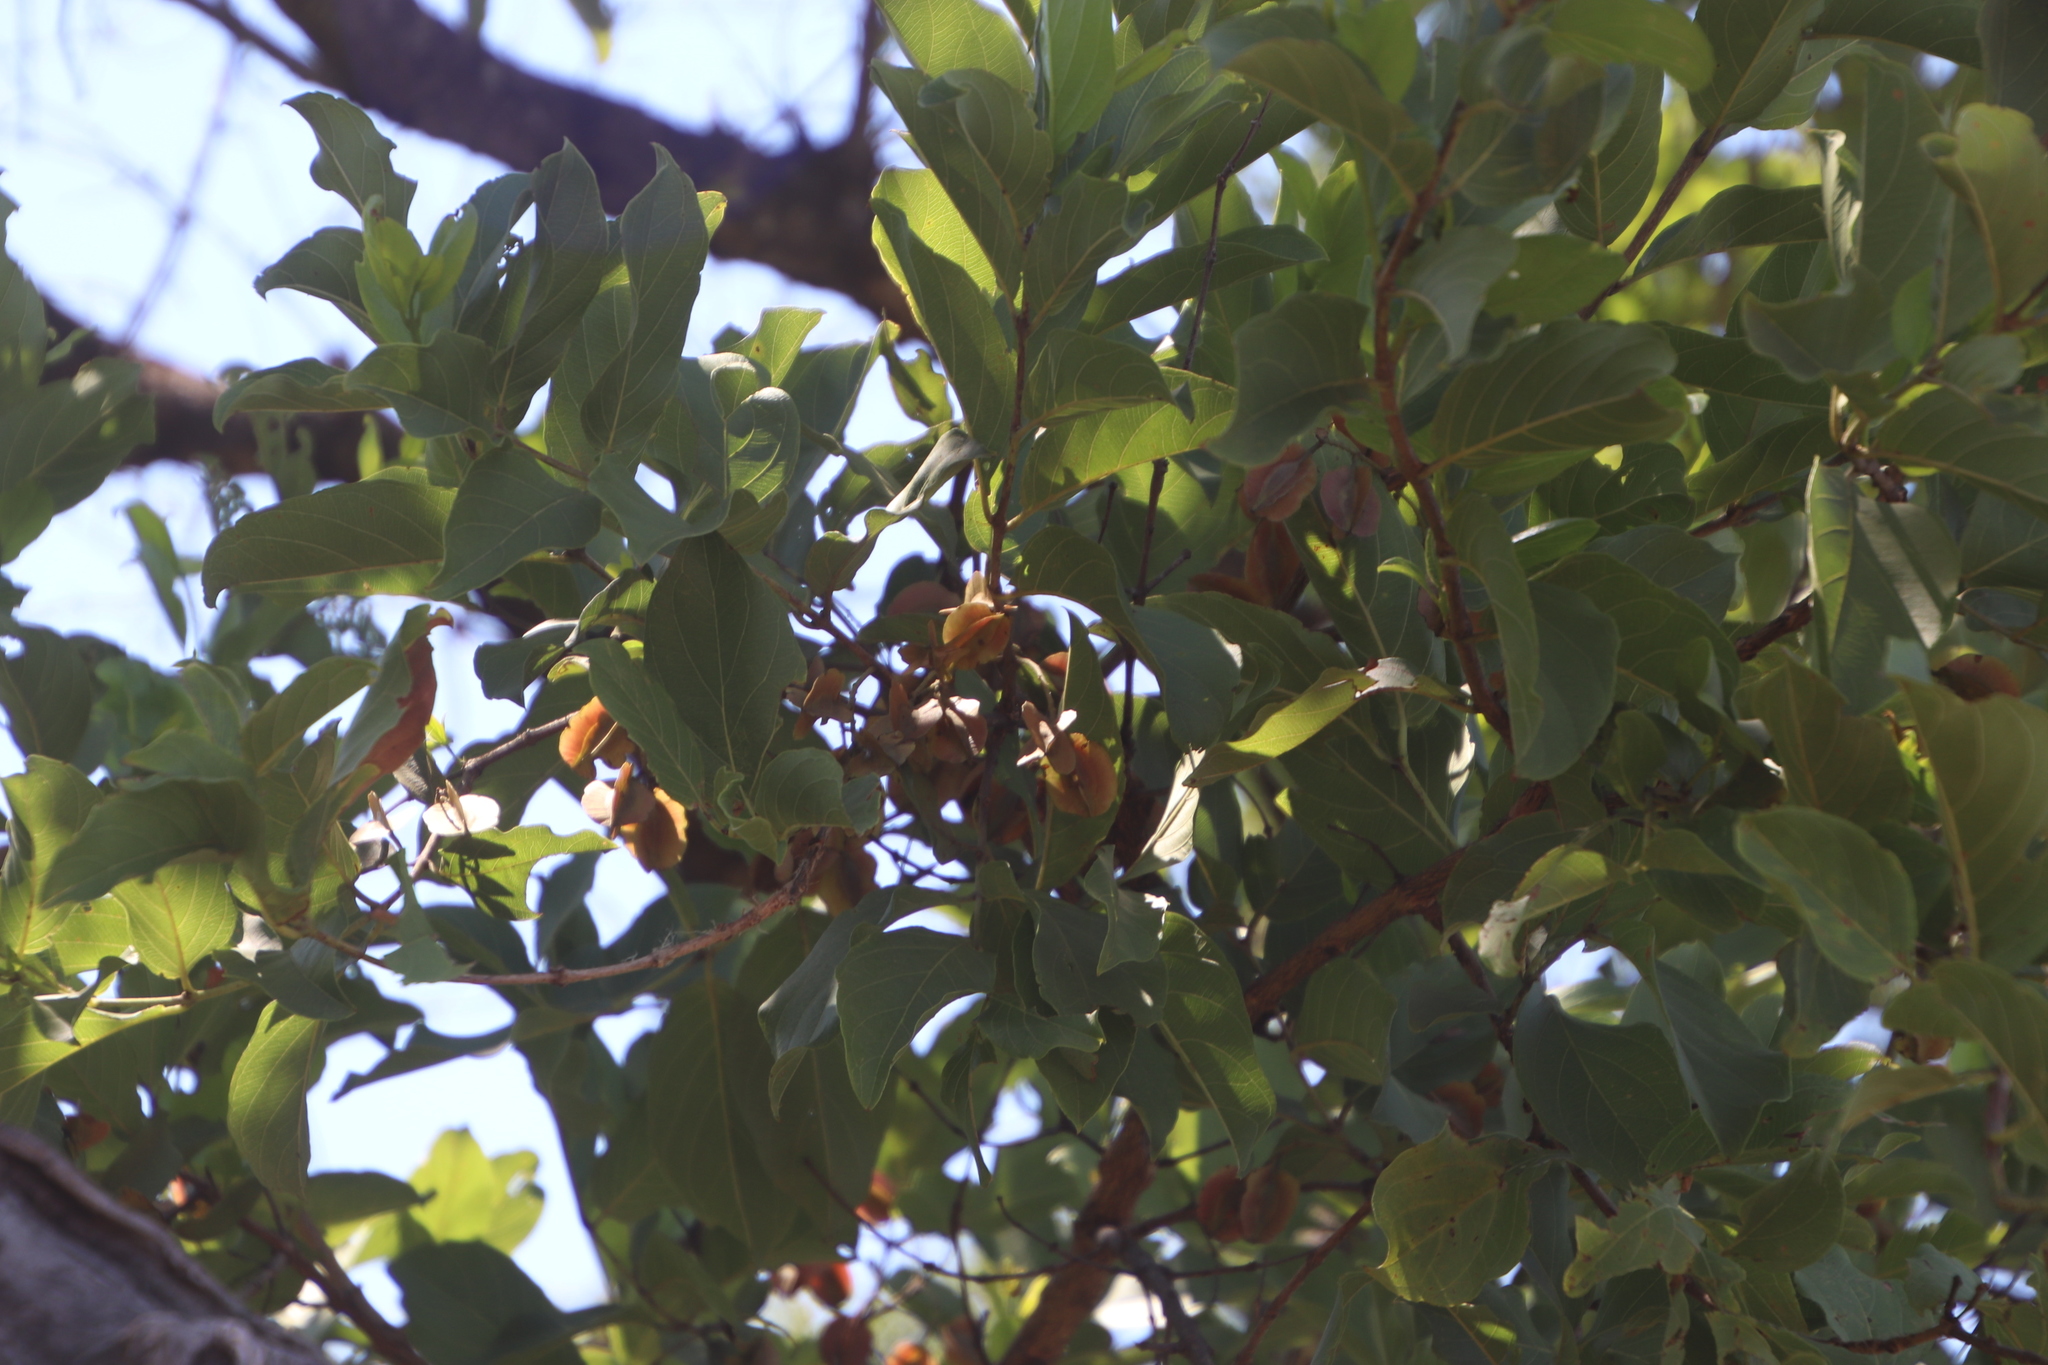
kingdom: Plantae
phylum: Tracheophyta
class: Magnoliopsida
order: Myrtales
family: Combretaceae
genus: Combretum
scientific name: Combretum apiculatum
